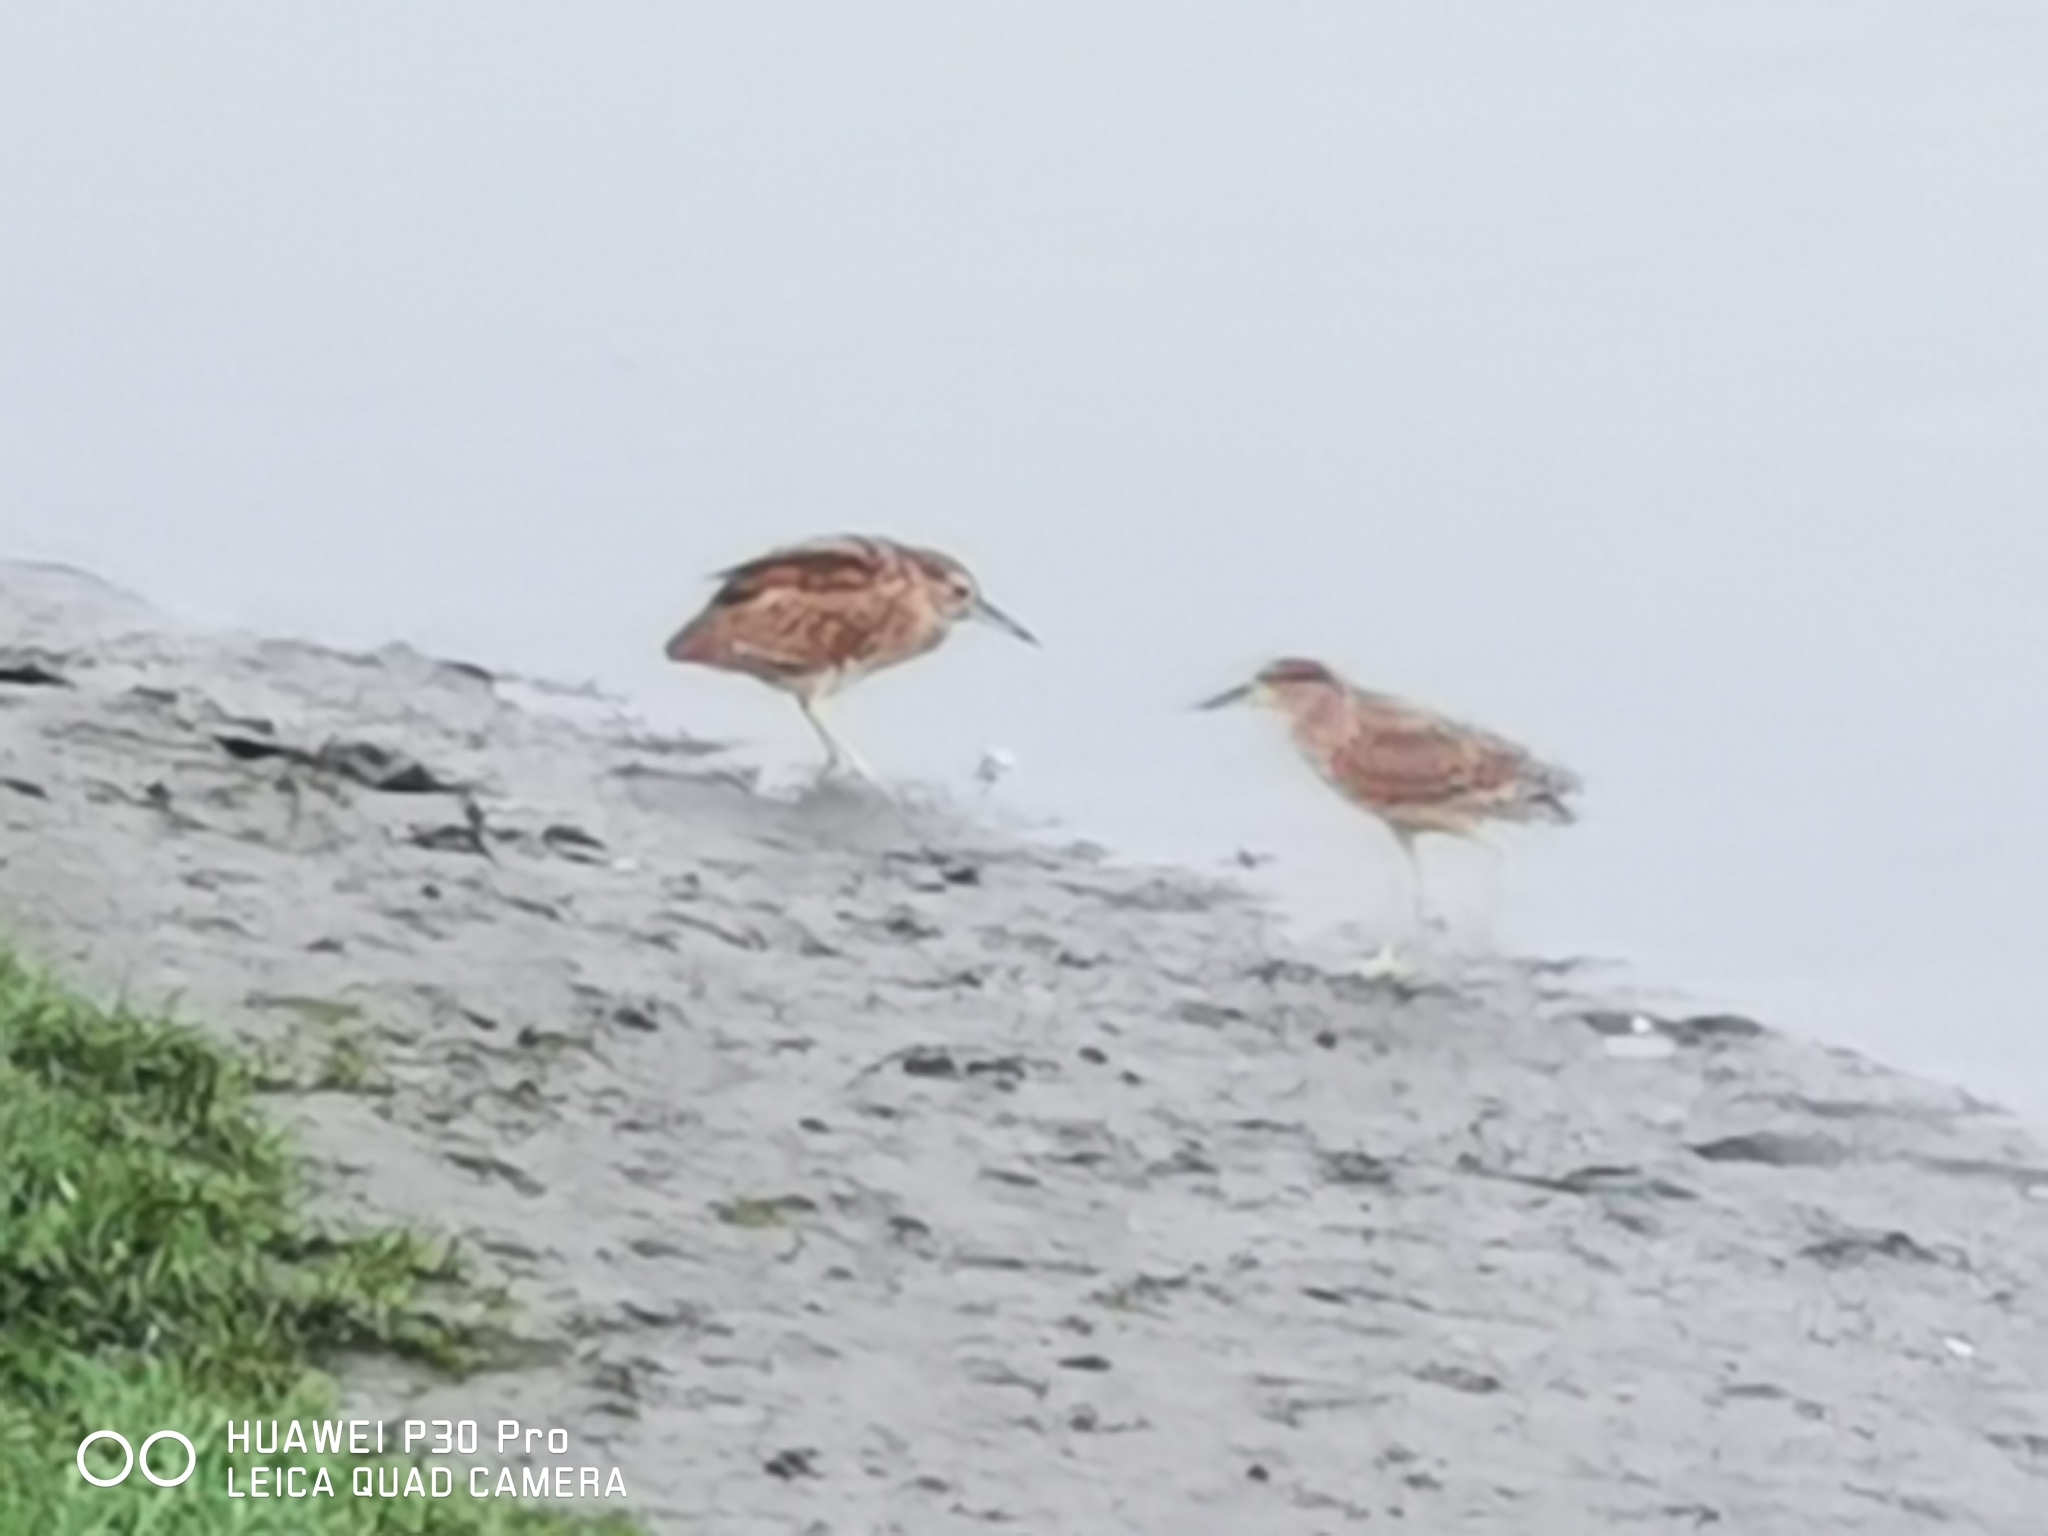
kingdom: Animalia
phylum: Chordata
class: Aves
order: Pelecaniformes
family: Ardeidae
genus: Nycticorax
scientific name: Nycticorax nycticorax
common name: Black-crowned night heron
